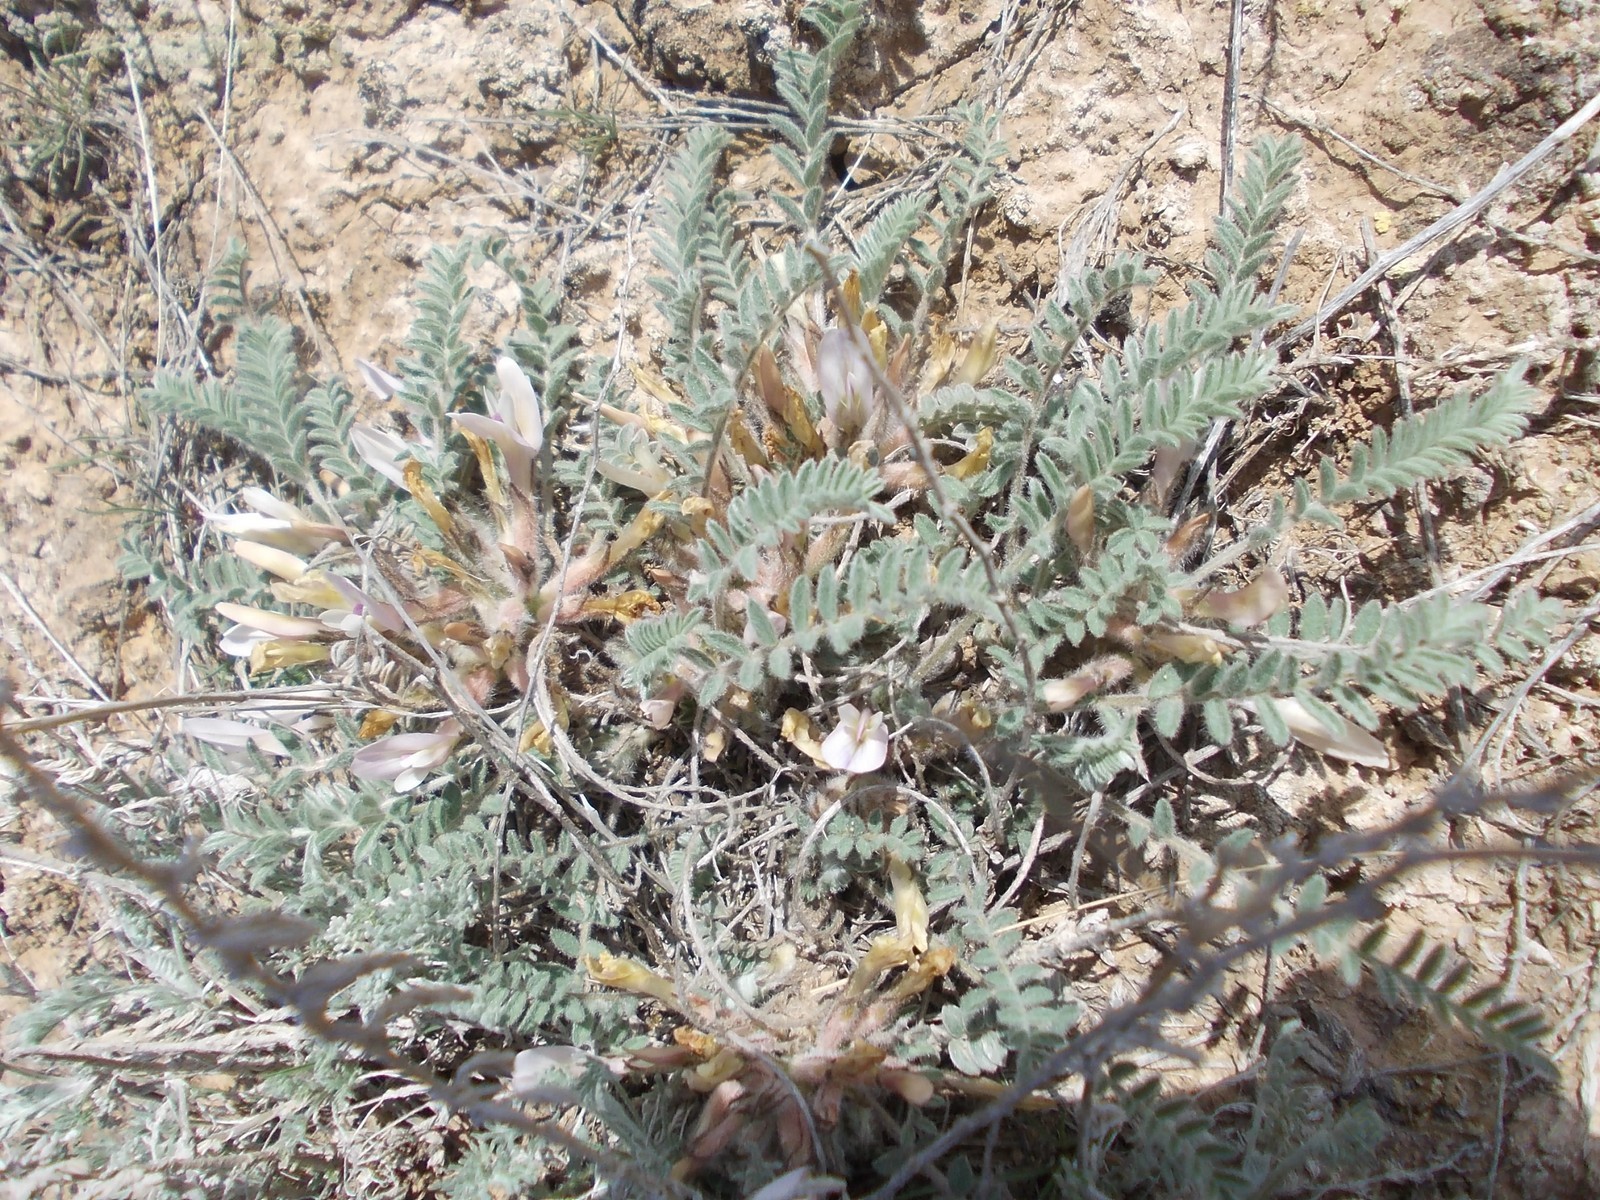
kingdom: Plantae
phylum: Tracheophyta
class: Magnoliopsida
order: Fabales
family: Fabaceae
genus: Astragalus
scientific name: Astragalus testiculatus
